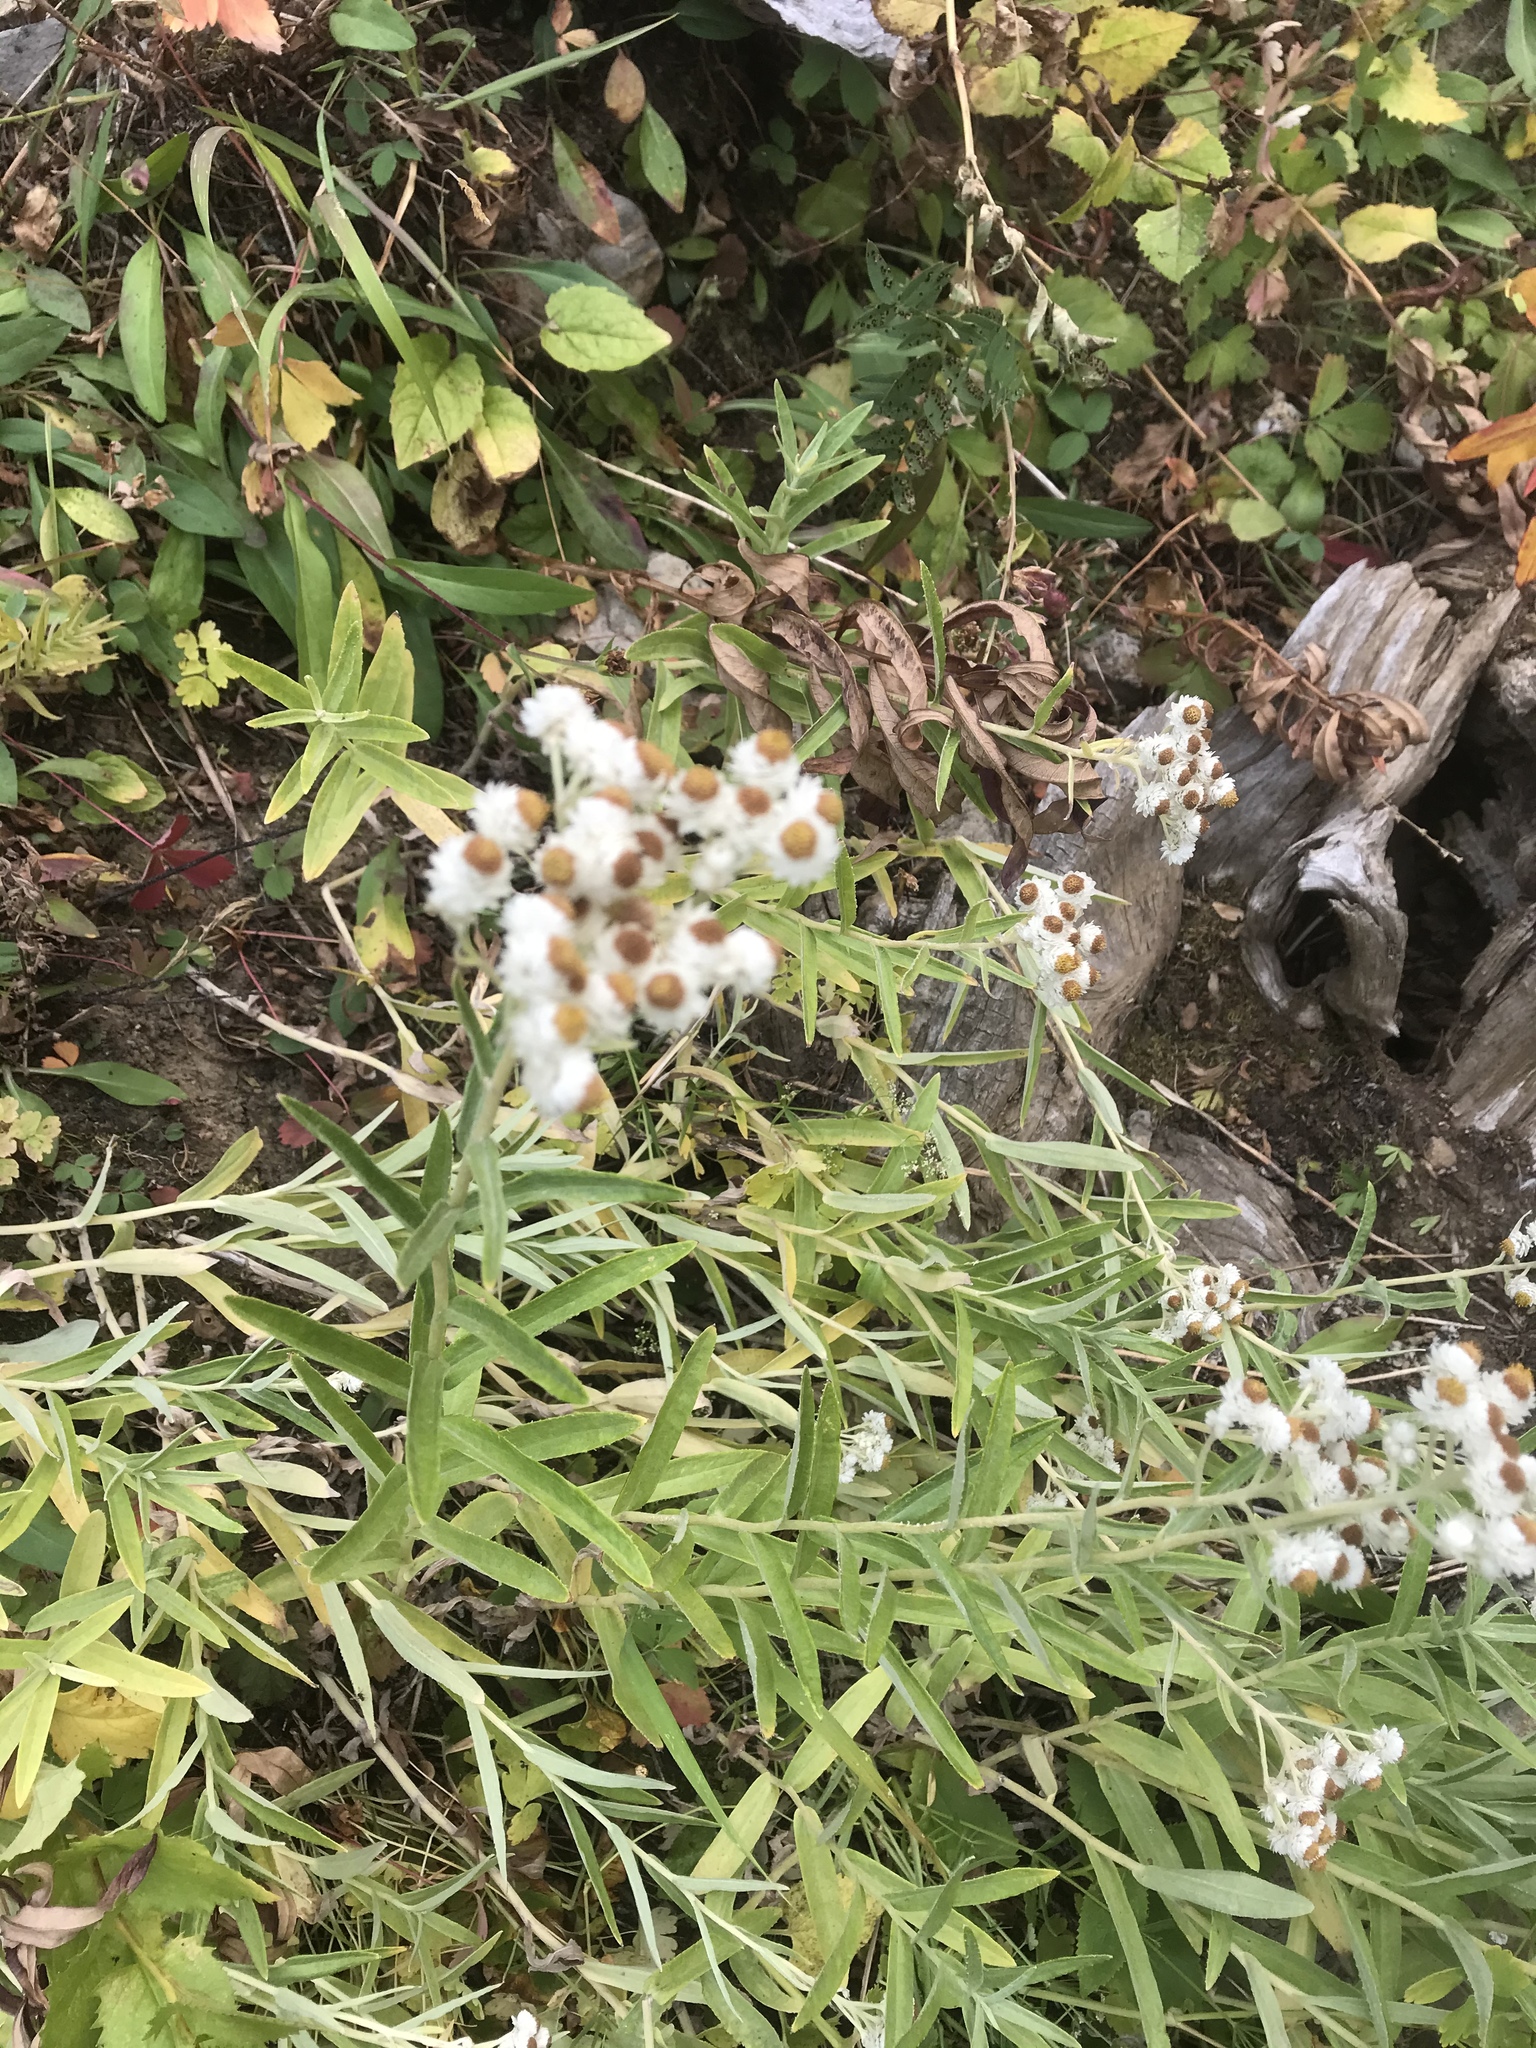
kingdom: Plantae
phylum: Tracheophyta
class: Magnoliopsida
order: Asterales
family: Asteraceae
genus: Anaphalis
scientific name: Anaphalis margaritacea
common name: Pearly everlasting
